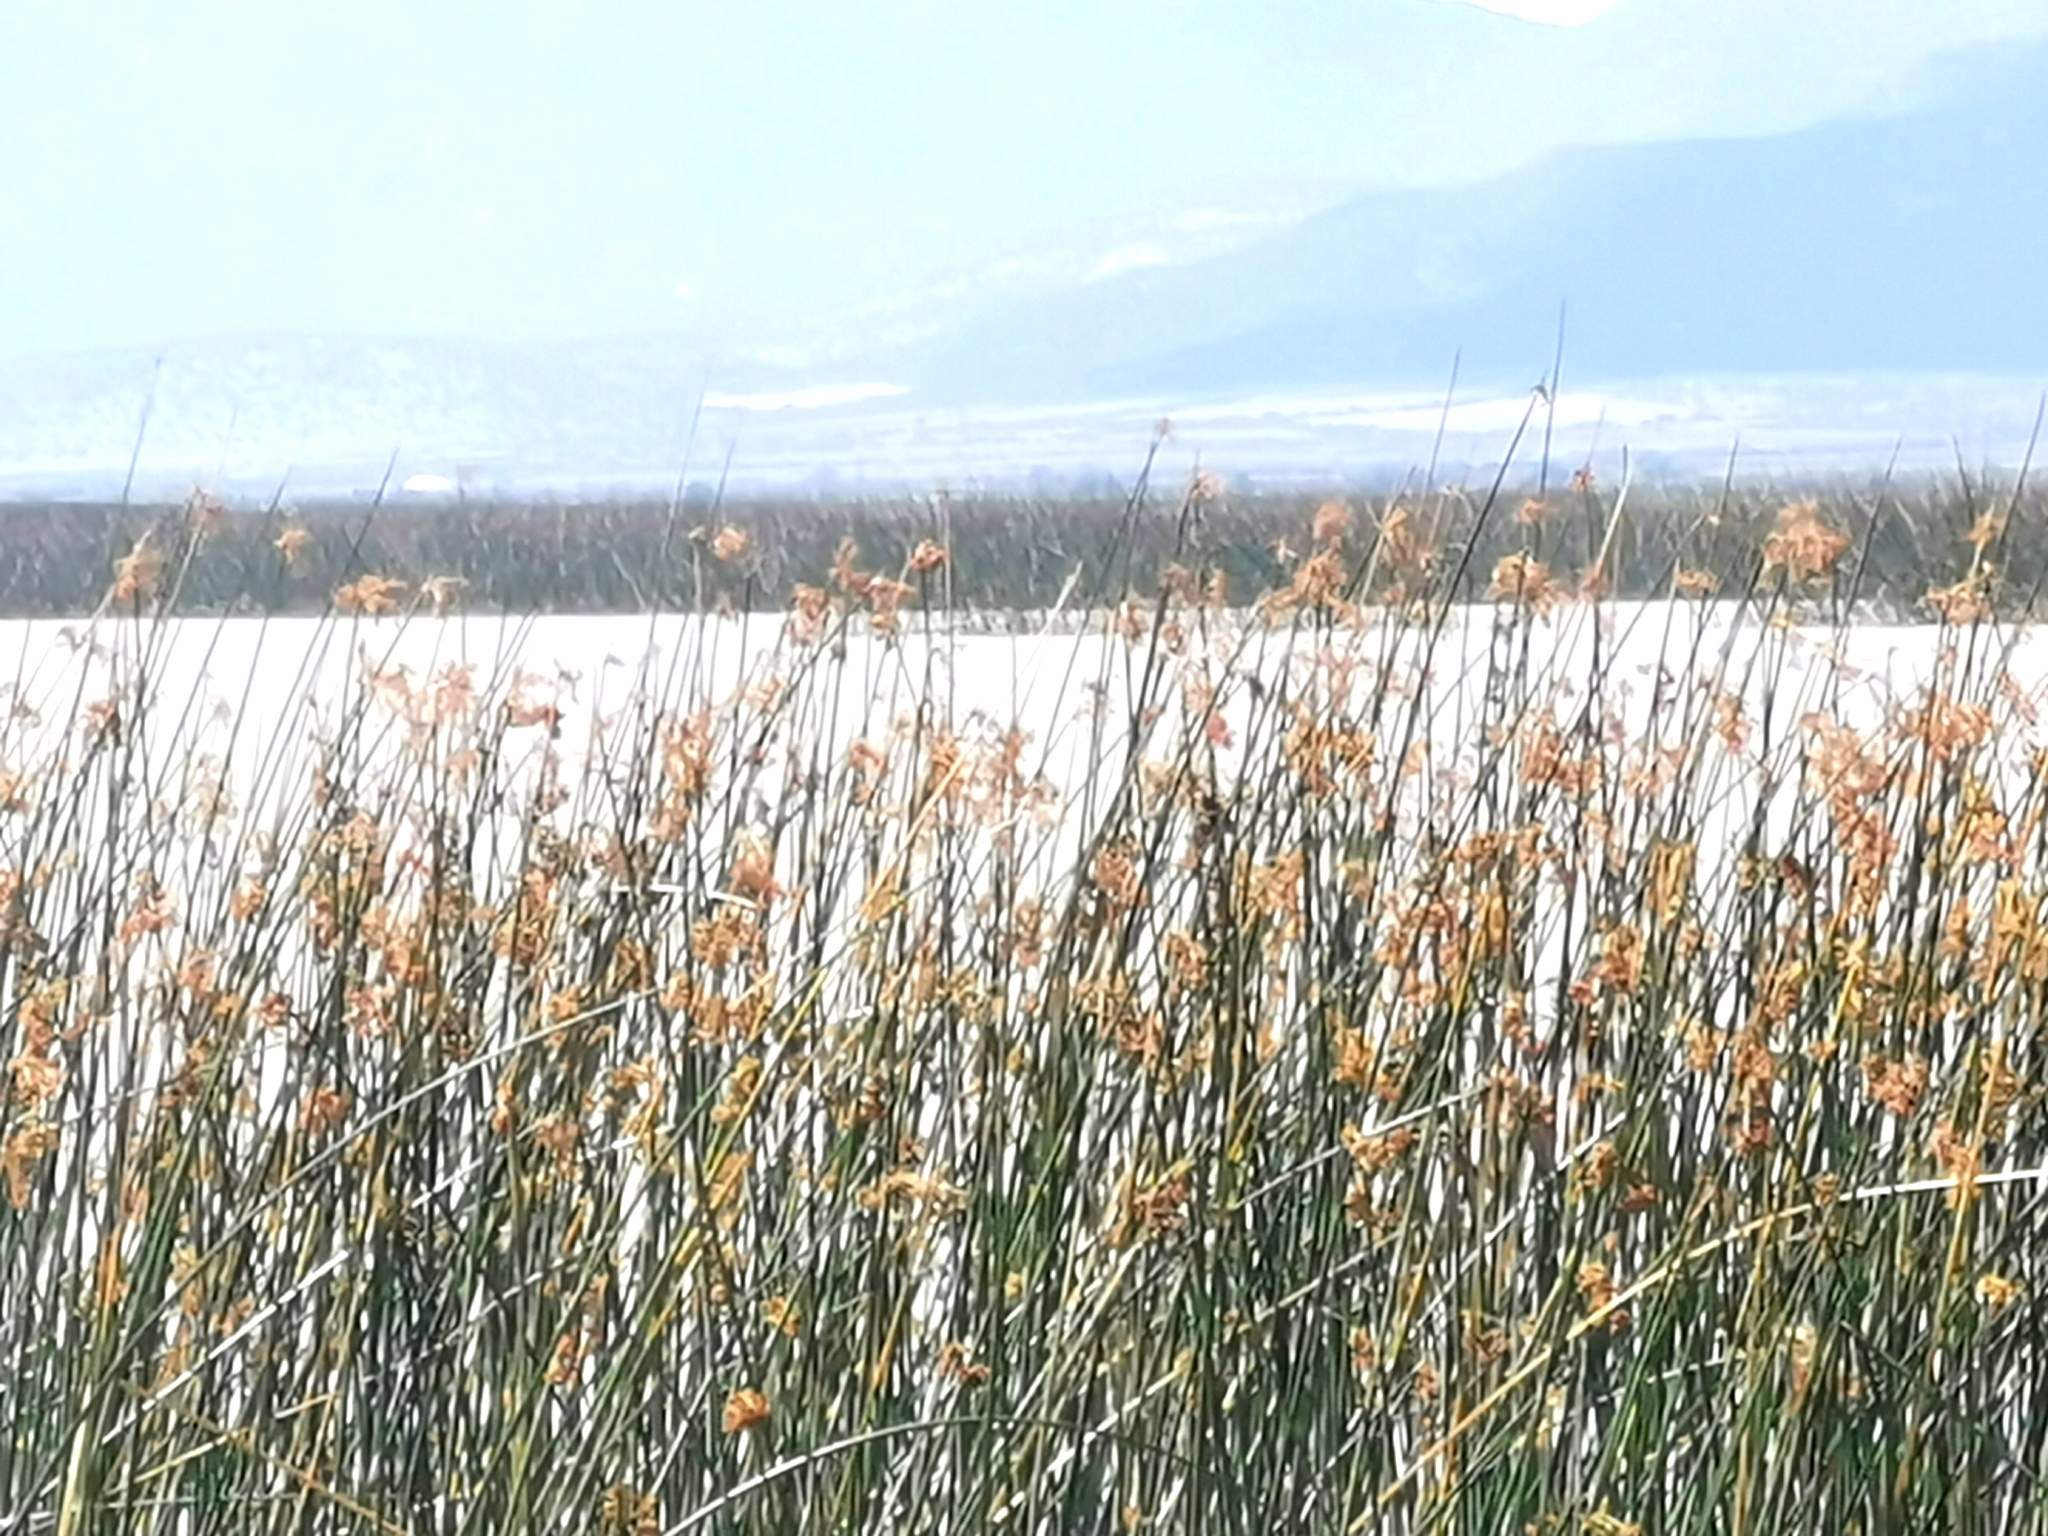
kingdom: Plantae
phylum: Tracheophyta
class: Liliopsida
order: Poales
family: Cyperaceae
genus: Schoenoplectus
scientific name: Schoenoplectus californicus
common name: California bulrush
